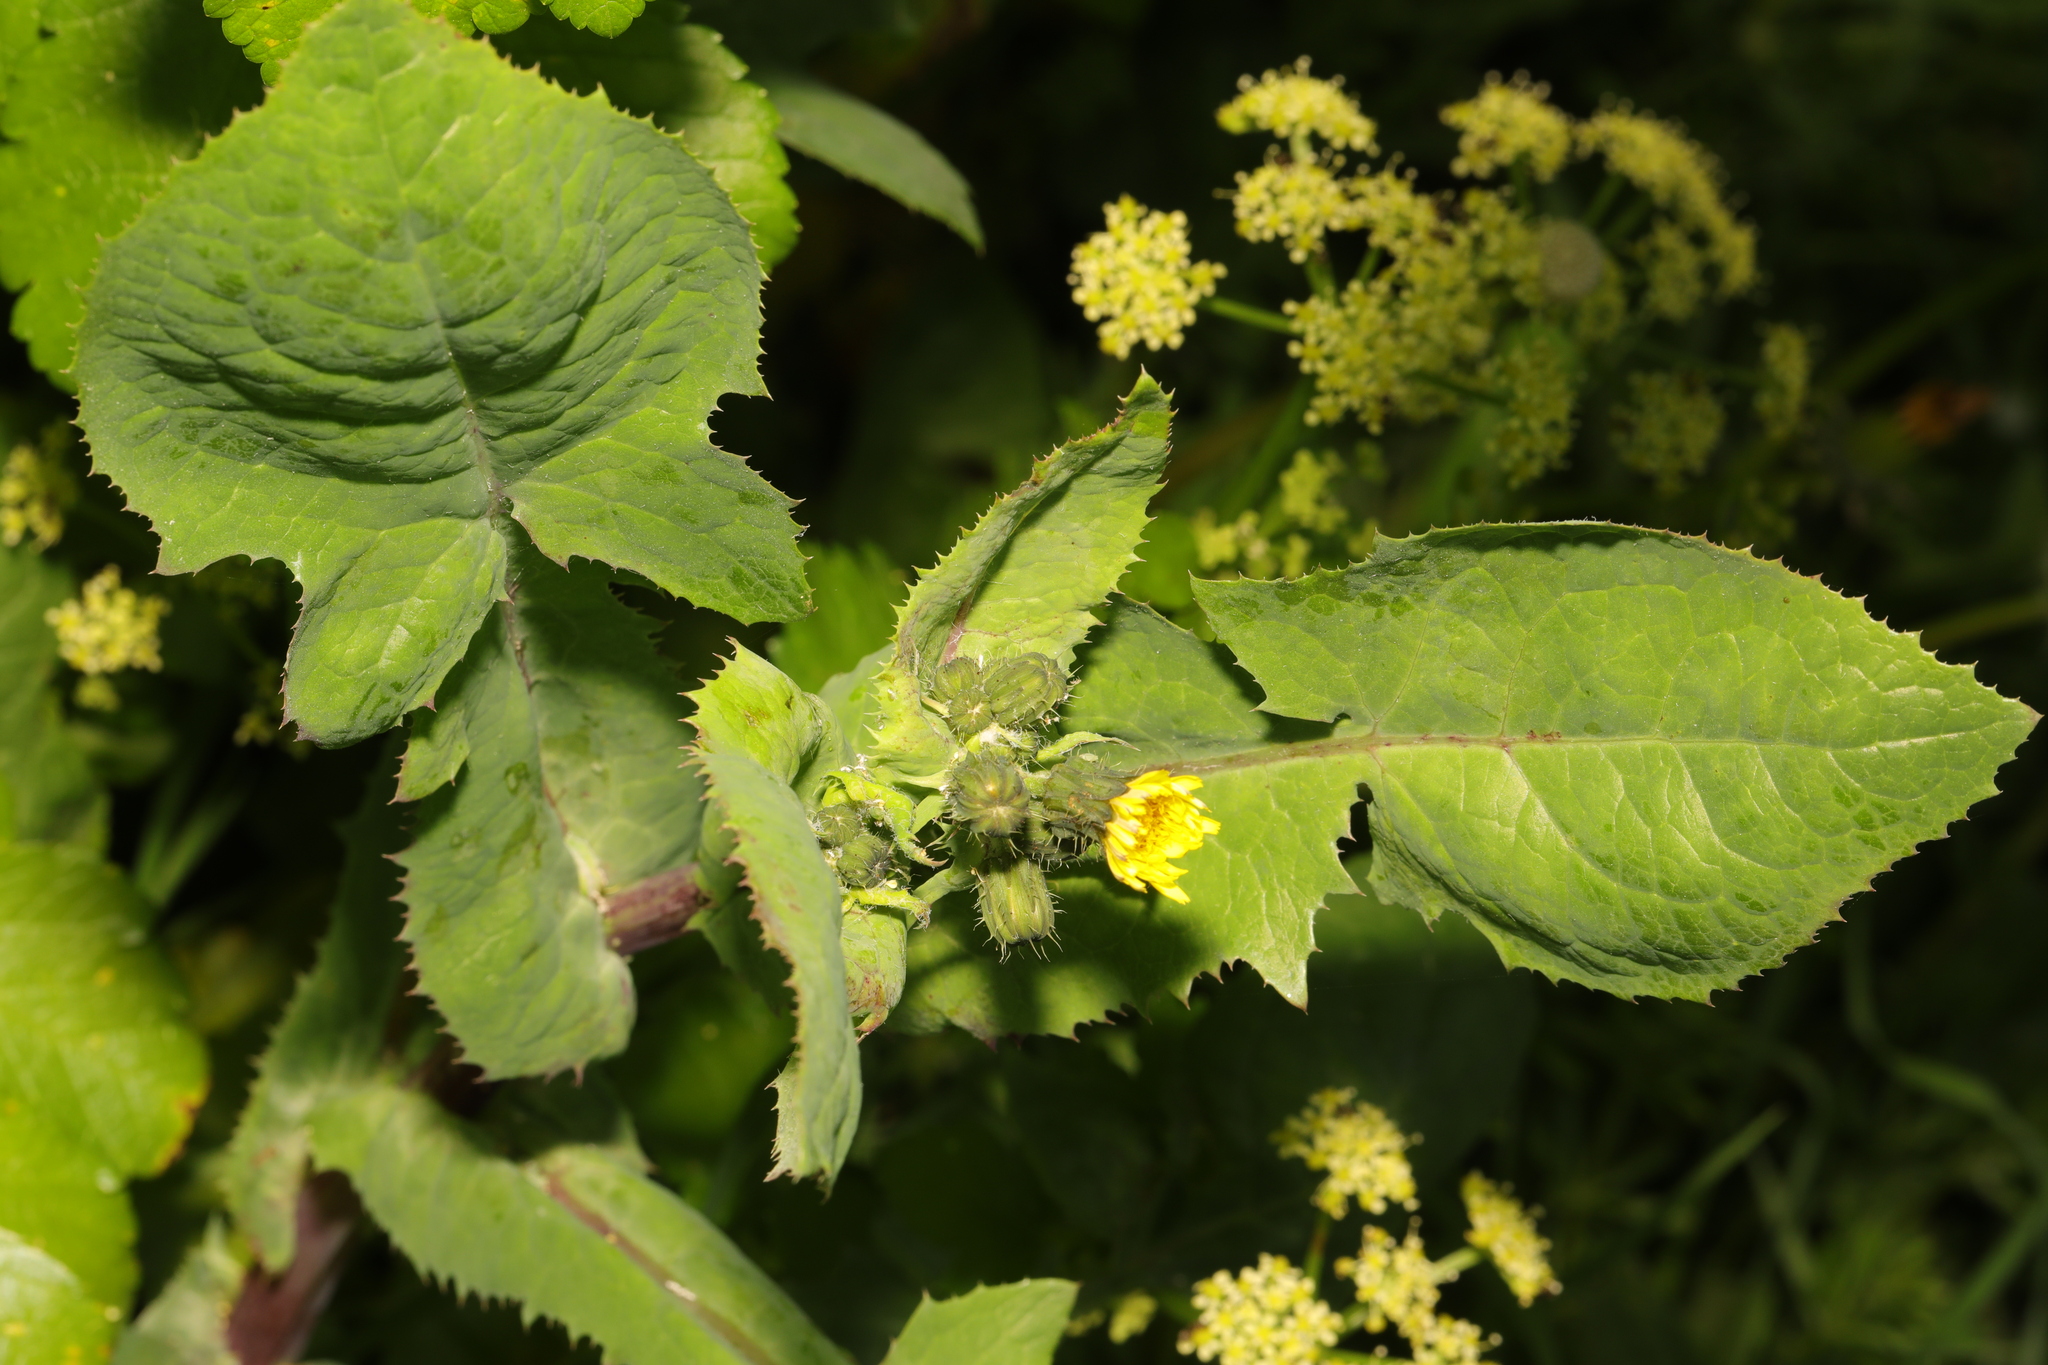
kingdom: Plantae
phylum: Tracheophyta
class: Magnoliopsida
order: Asterales
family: Asteraceae
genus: Sonchus
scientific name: Sonchus oleraceus
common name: Common sowthistle
